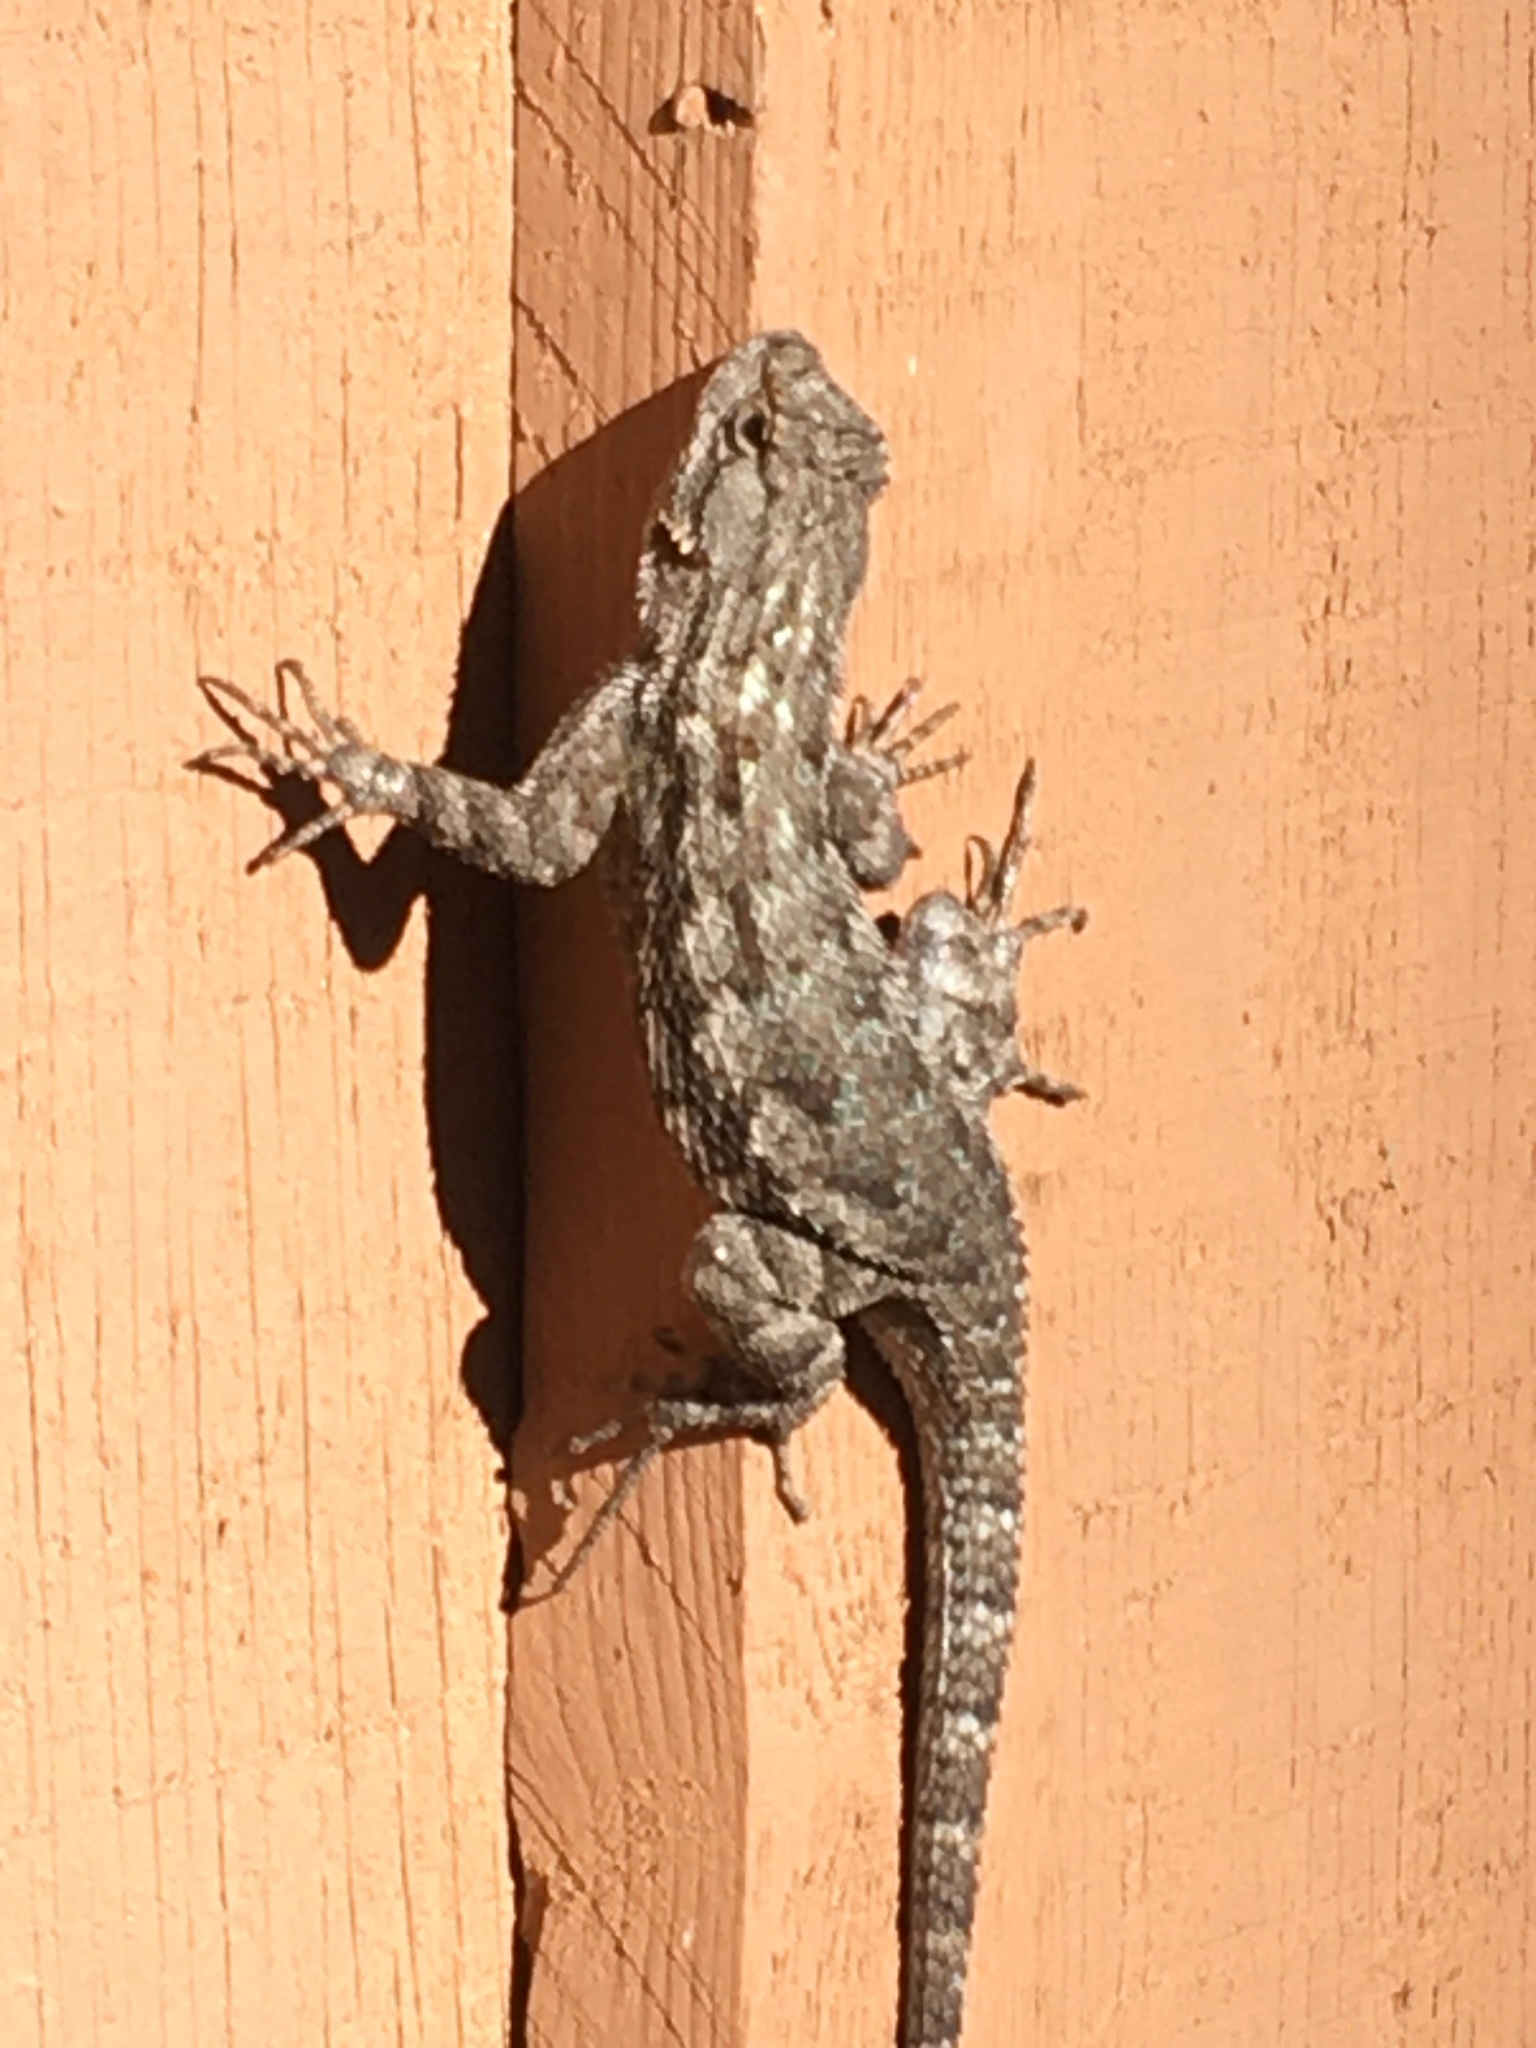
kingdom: Animalia
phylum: Chordata
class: Squamata
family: Phrynosomatidae
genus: Sceloporus
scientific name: Sceloporus occidentalis
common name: Western fence lizard
